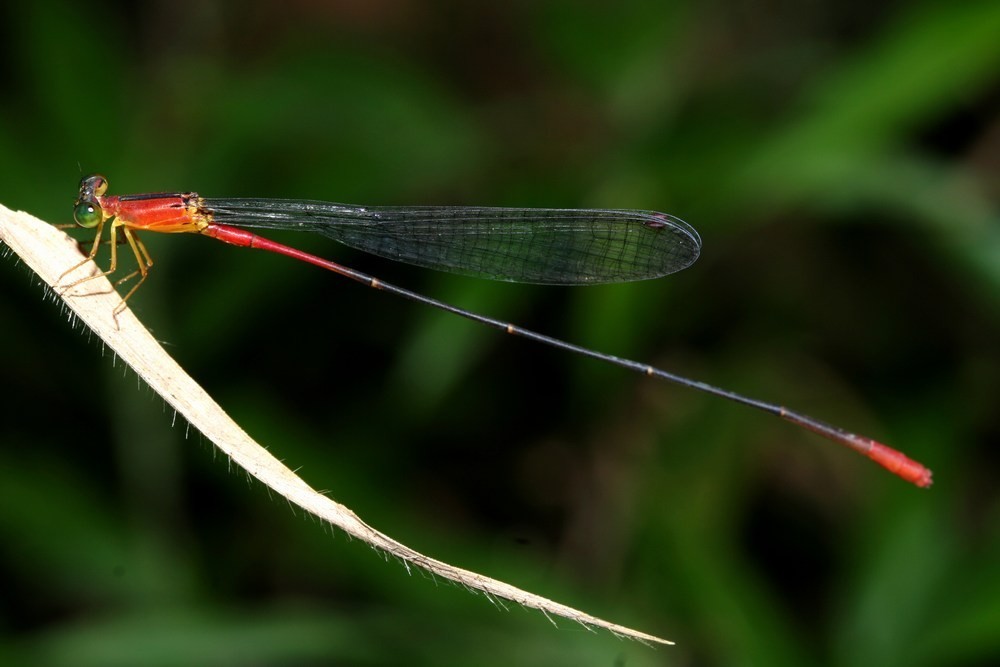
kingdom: Animalia
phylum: Arthropoda
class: Insecta
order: Odonata
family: Coenagrionidae
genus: Teinobasis
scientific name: Teinobasis alluaudi
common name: Indian ocean fineliner
